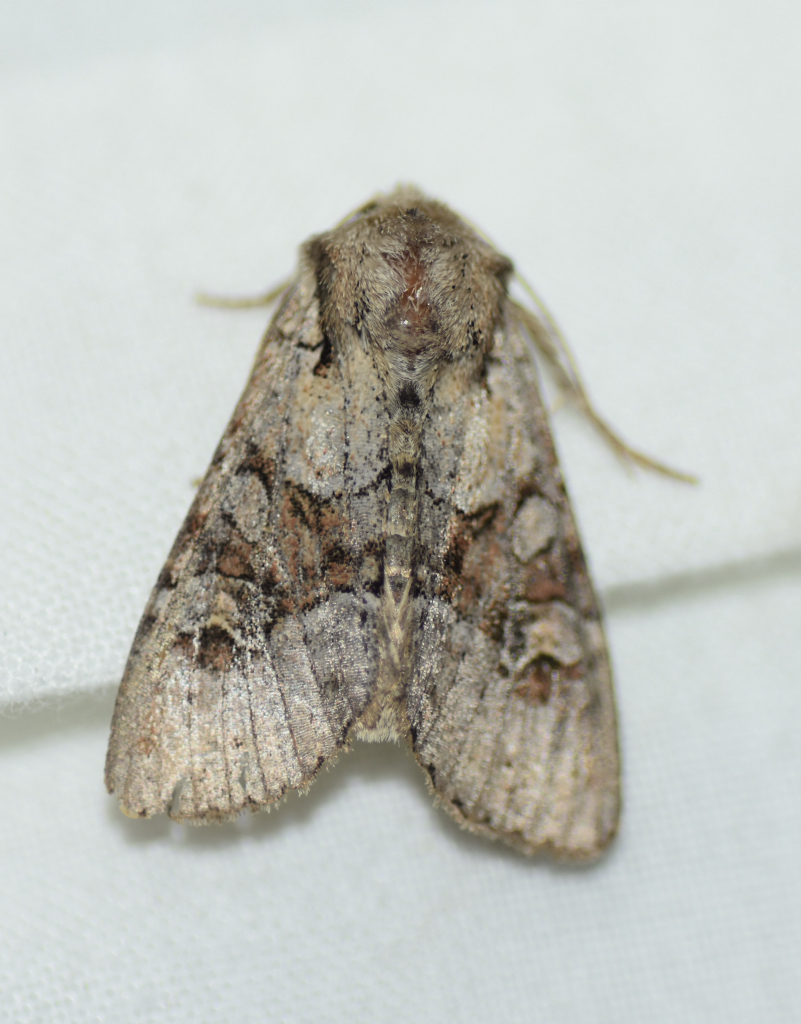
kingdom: Animalia
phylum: Arthropoda
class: Insecta
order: Lepidoptera
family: Noctuidae
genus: Apamea
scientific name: Apamea sordens
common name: Rustic shoulder-knot
